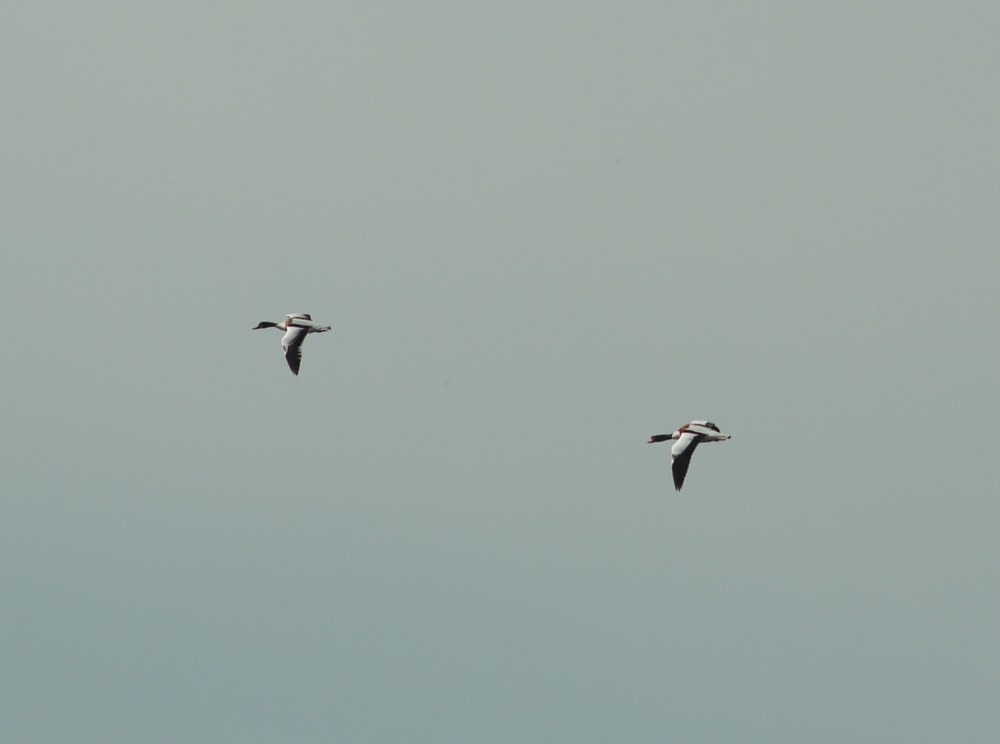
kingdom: Animalia
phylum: Chordata
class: Aves
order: Anseriformes
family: Anatidae
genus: Tadorna
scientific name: Tadorna tadorna
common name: Common shelduck
